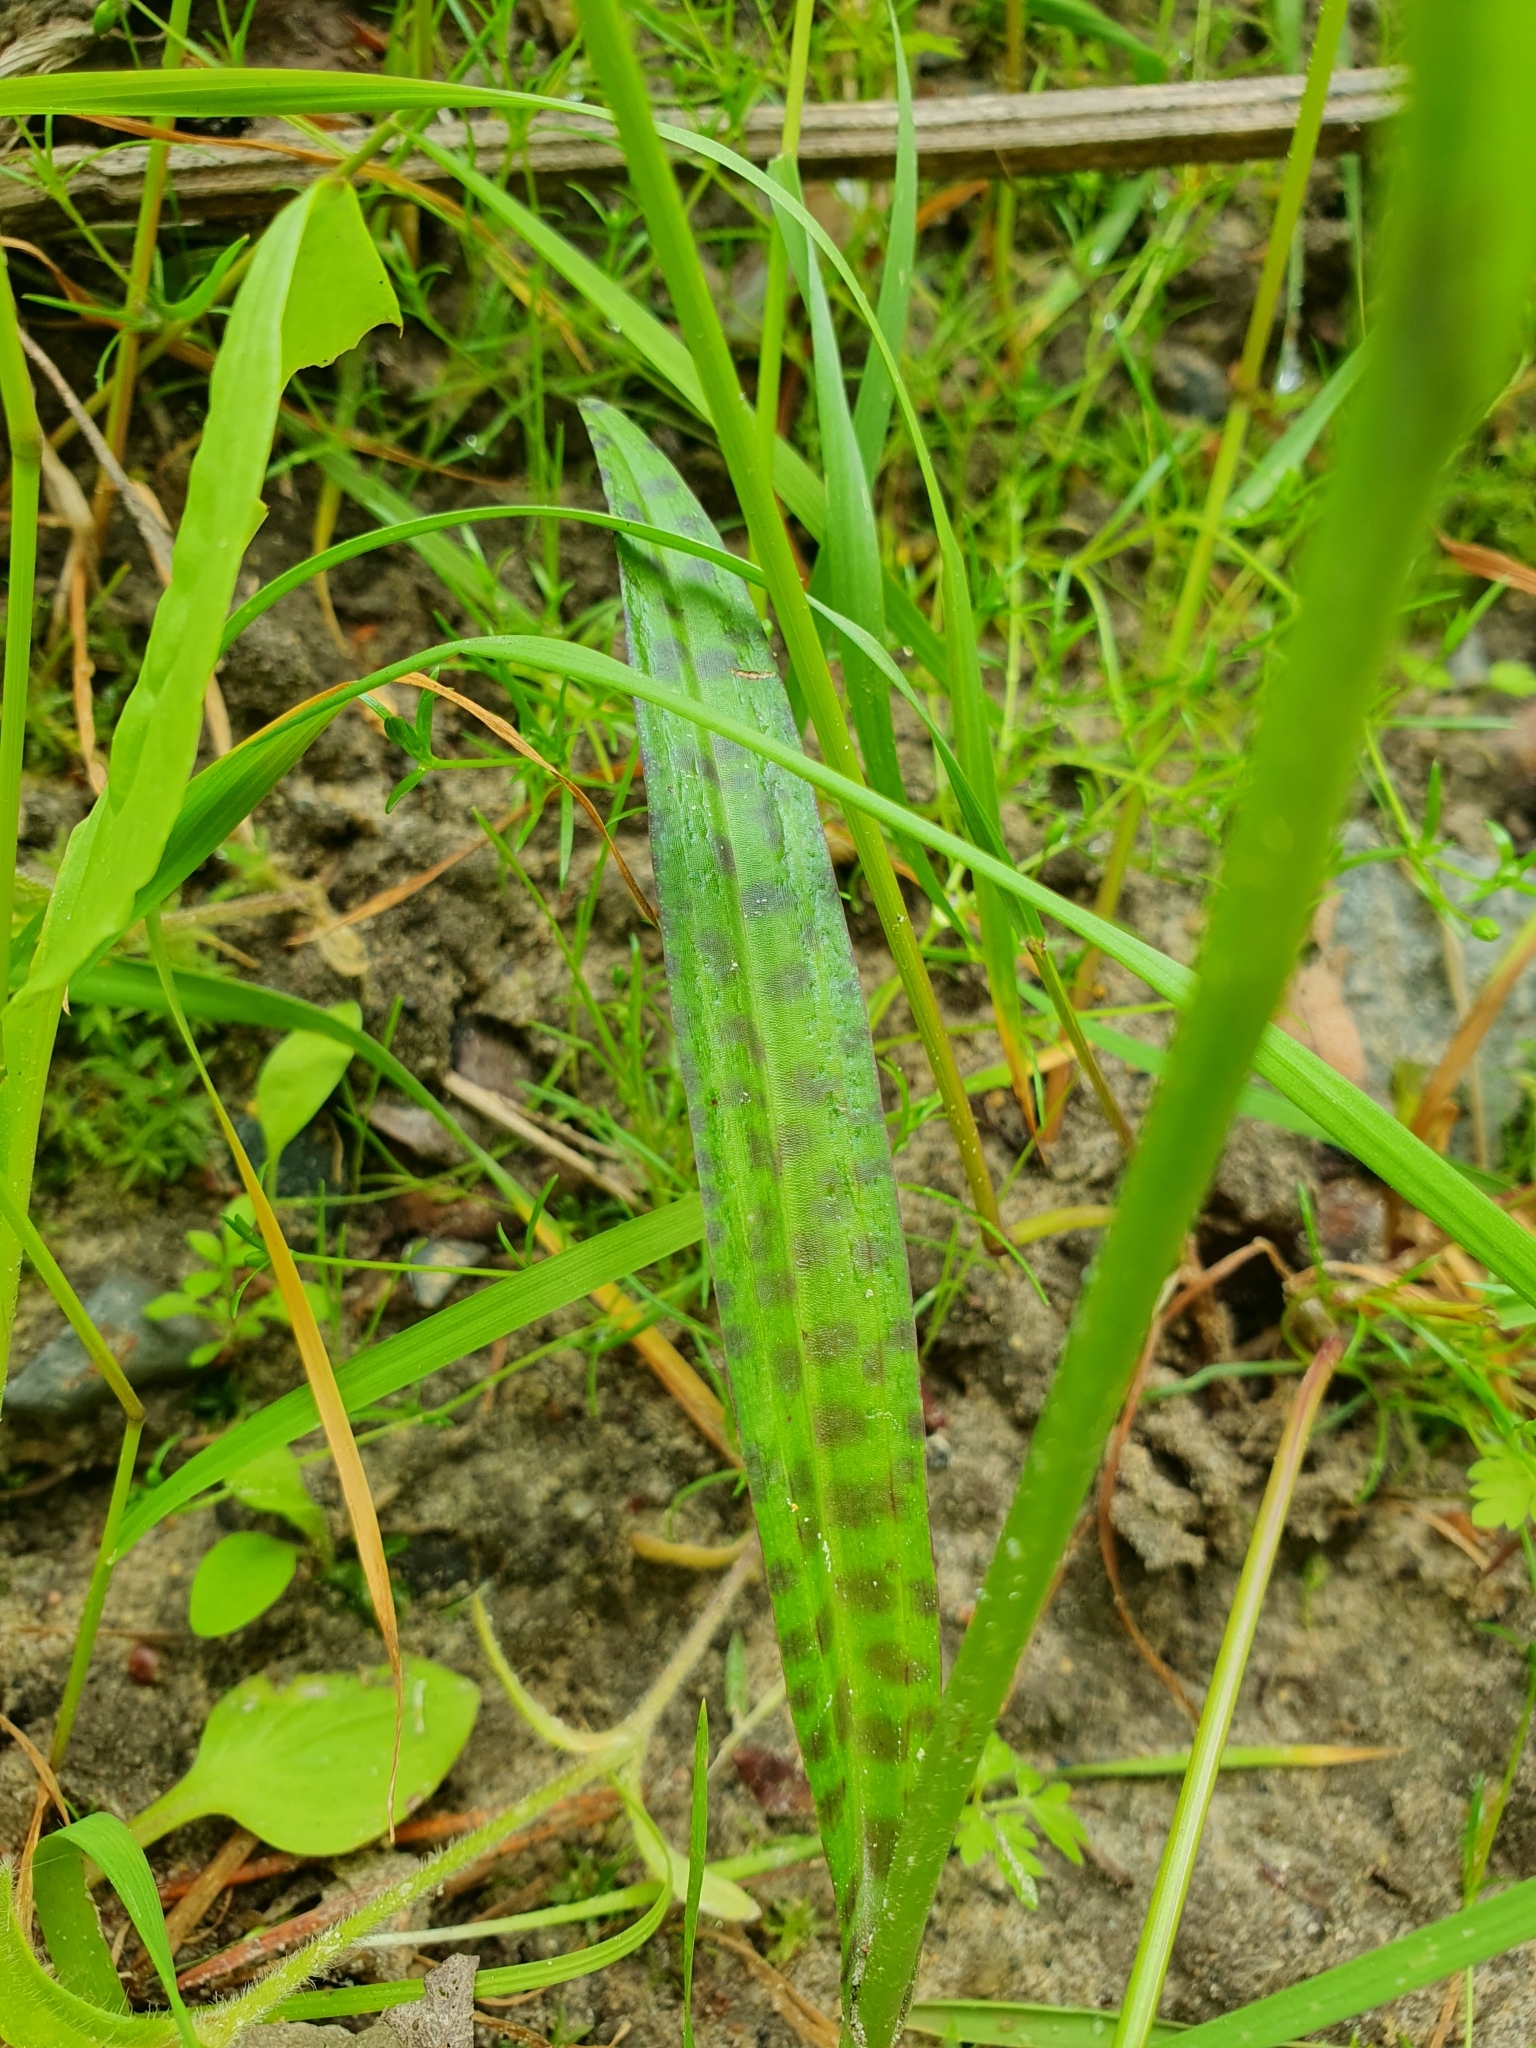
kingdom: Plantae
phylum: Tracheophyta
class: Liliopsida
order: Asparagales
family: Orchidaceae
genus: Dactylorhiza
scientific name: Dactylorhiza maculata
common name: Heath spotted-orchid
